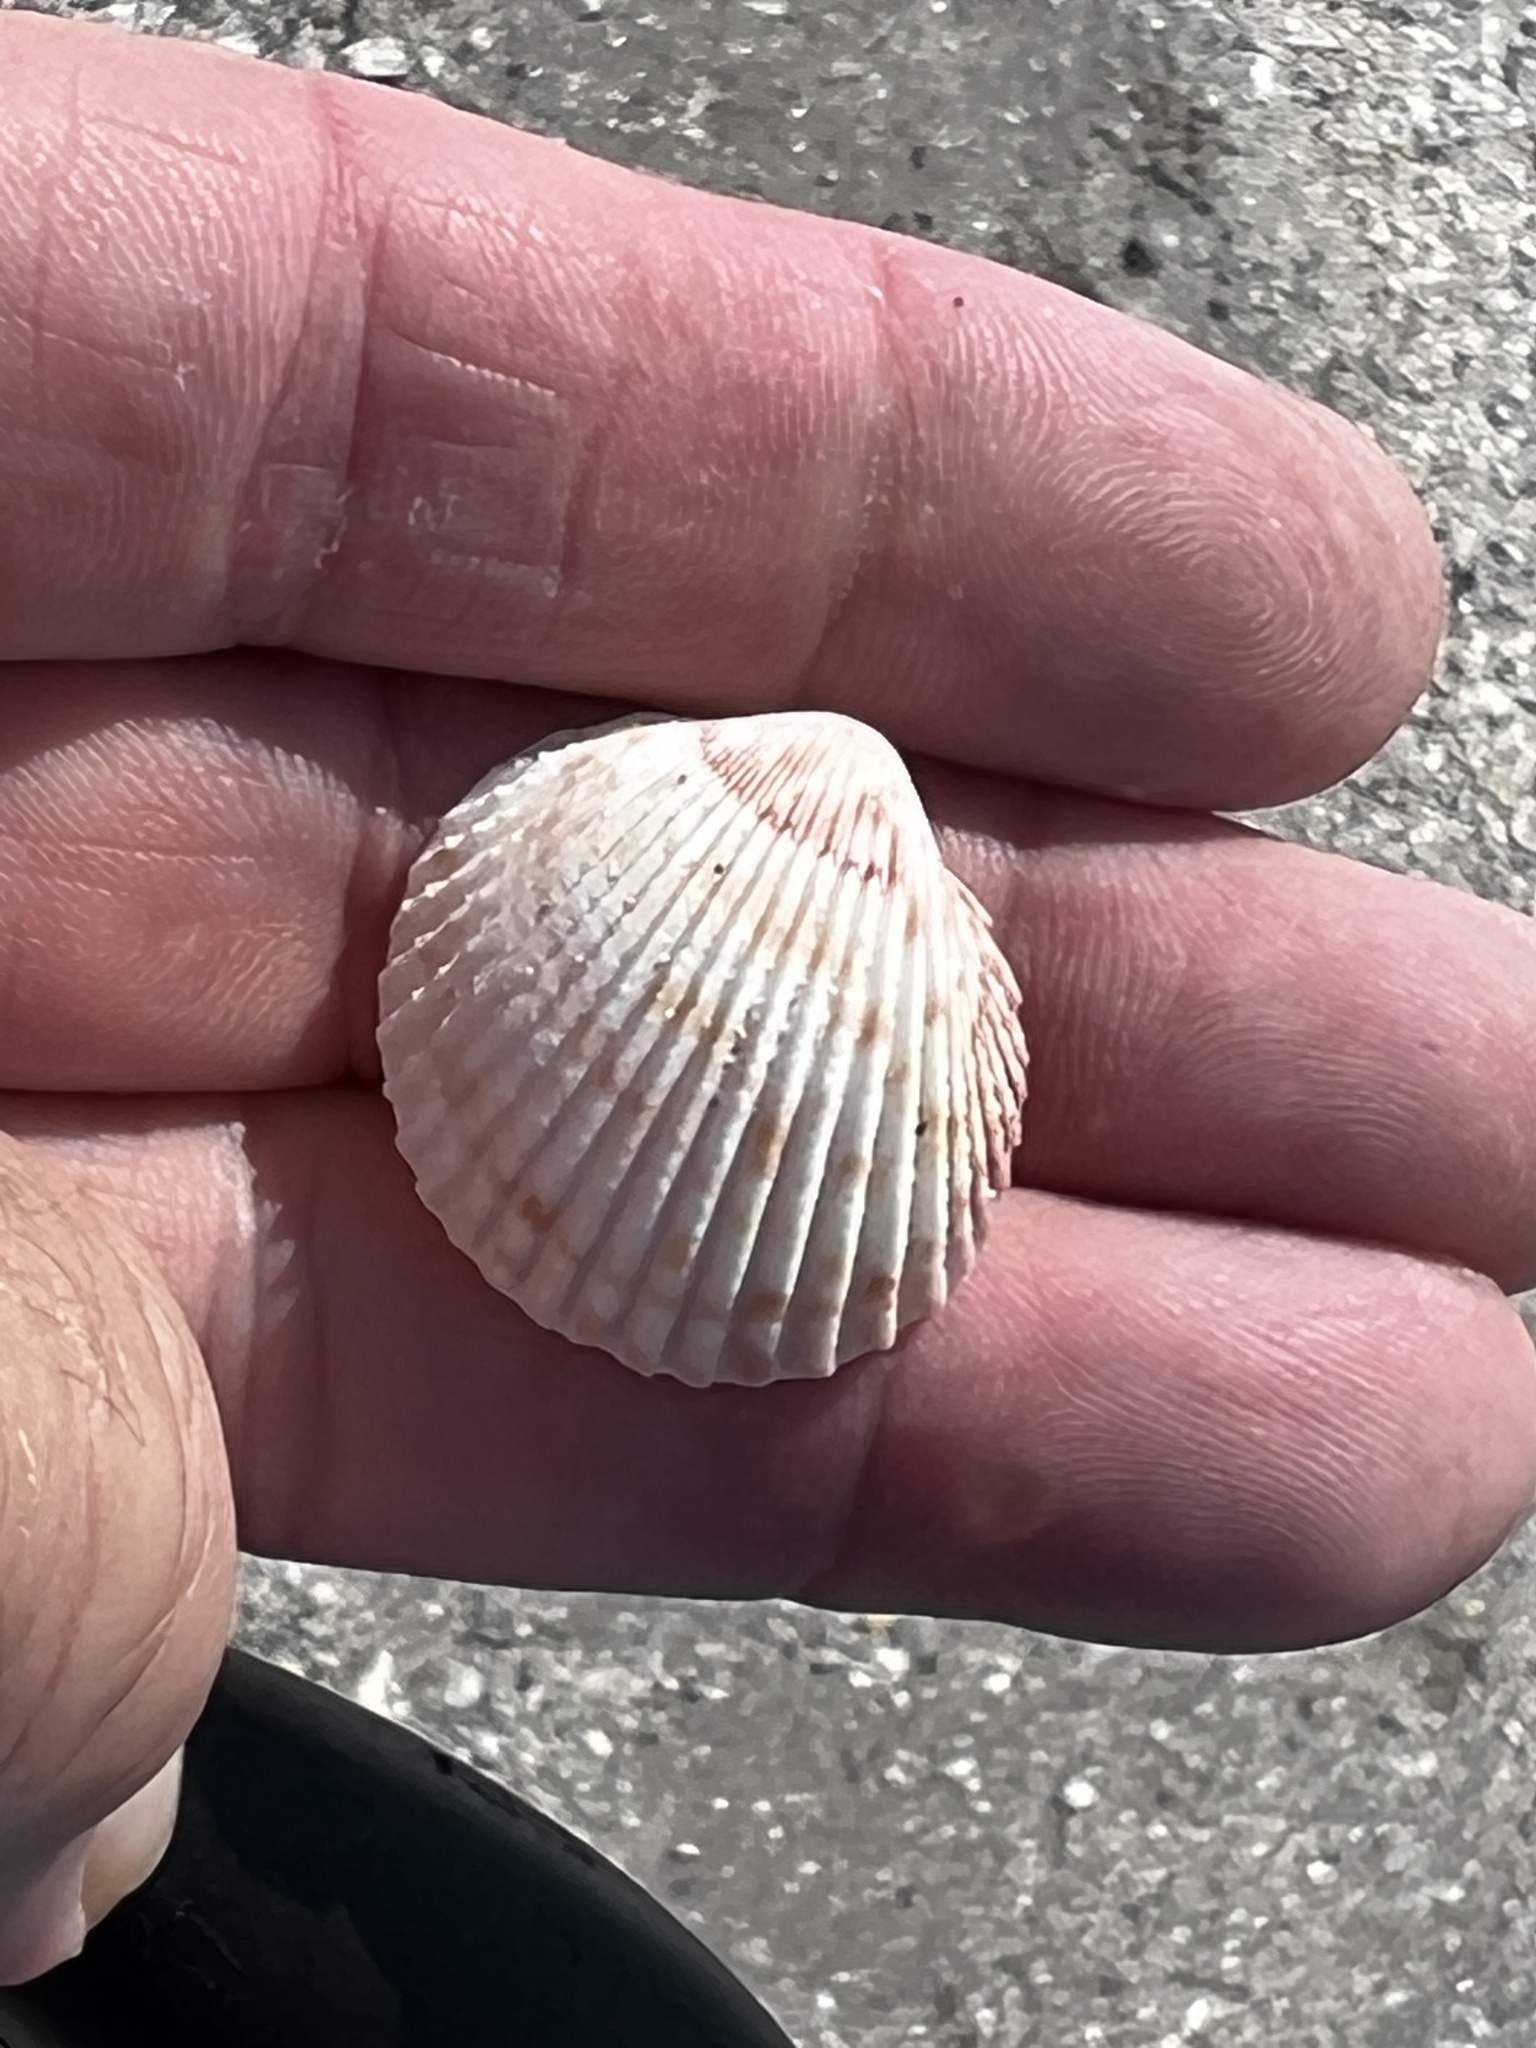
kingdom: Animalia
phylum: Mollusca
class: Bivalvia
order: Cardiida
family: Cardiidae
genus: Trachycardium
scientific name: Trachycardium egmontianum
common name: Florida pricklycockle
